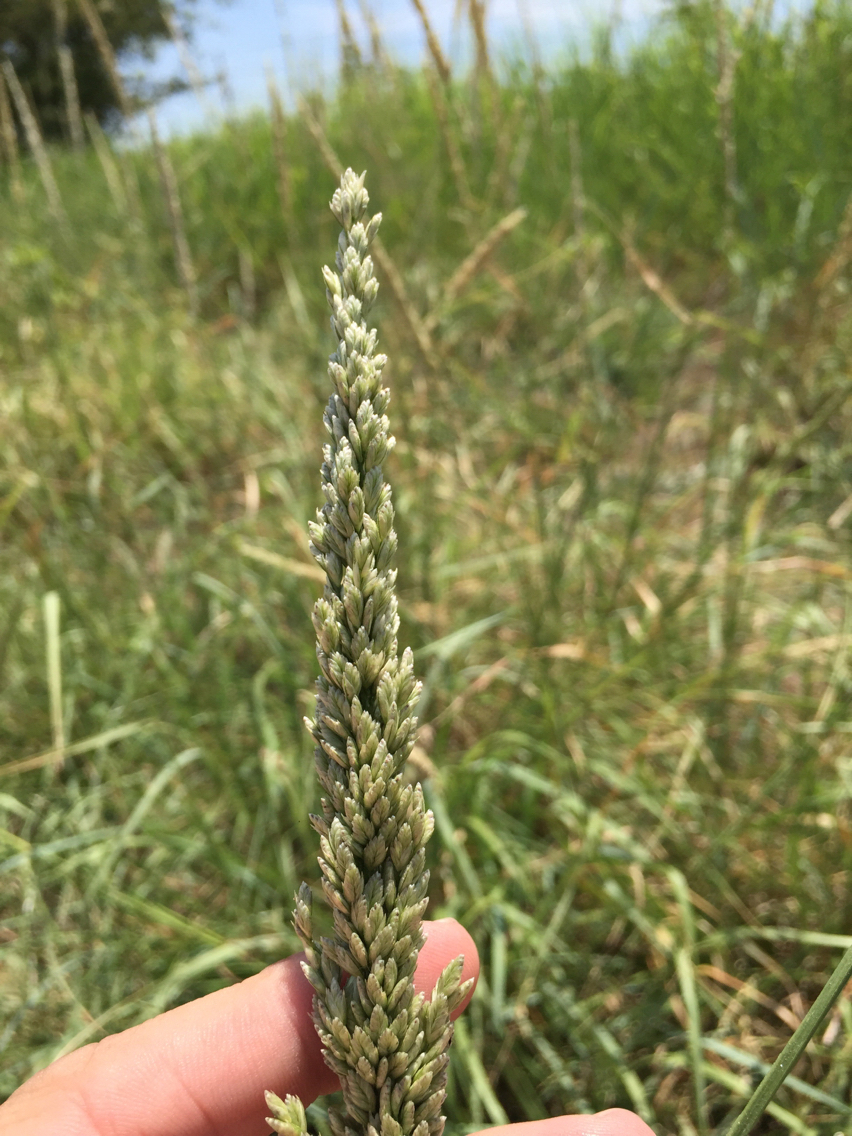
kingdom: Plantae
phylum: Tracheophyta
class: Liliopsida
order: Poales
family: Poaceae
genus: Tridens
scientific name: Tridens albescens
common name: White tridens
